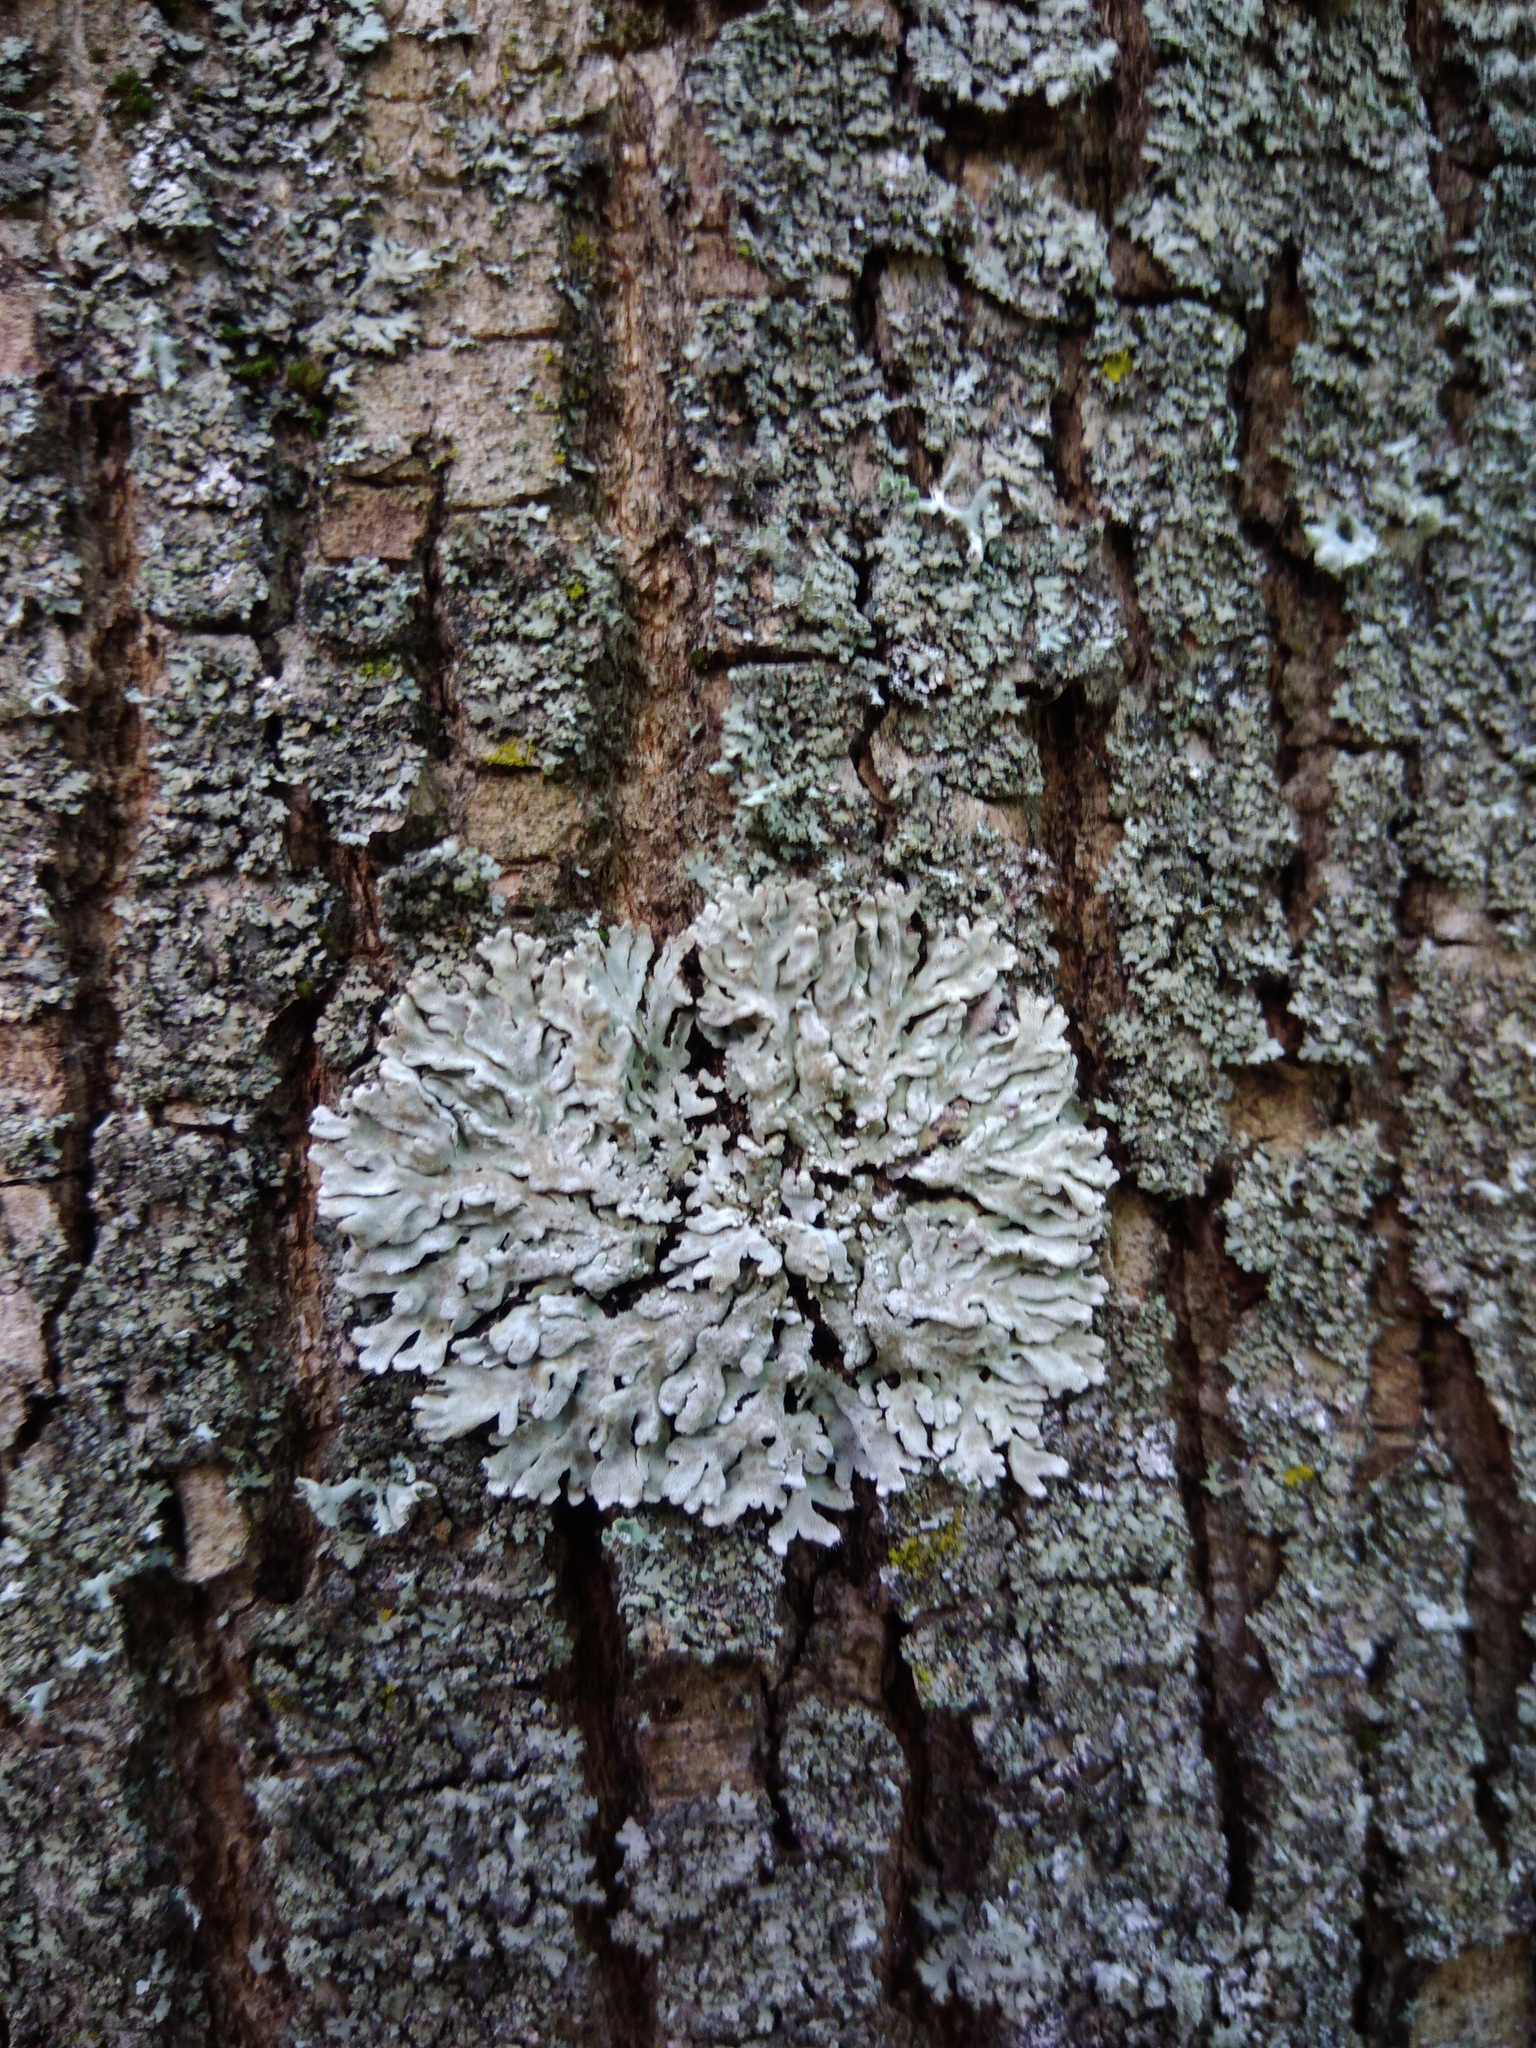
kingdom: Fungi
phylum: Ascomycota
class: Lecanoromycetes
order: Caliciales
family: Physciaceae
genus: Physconia
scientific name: Physconia distorta
